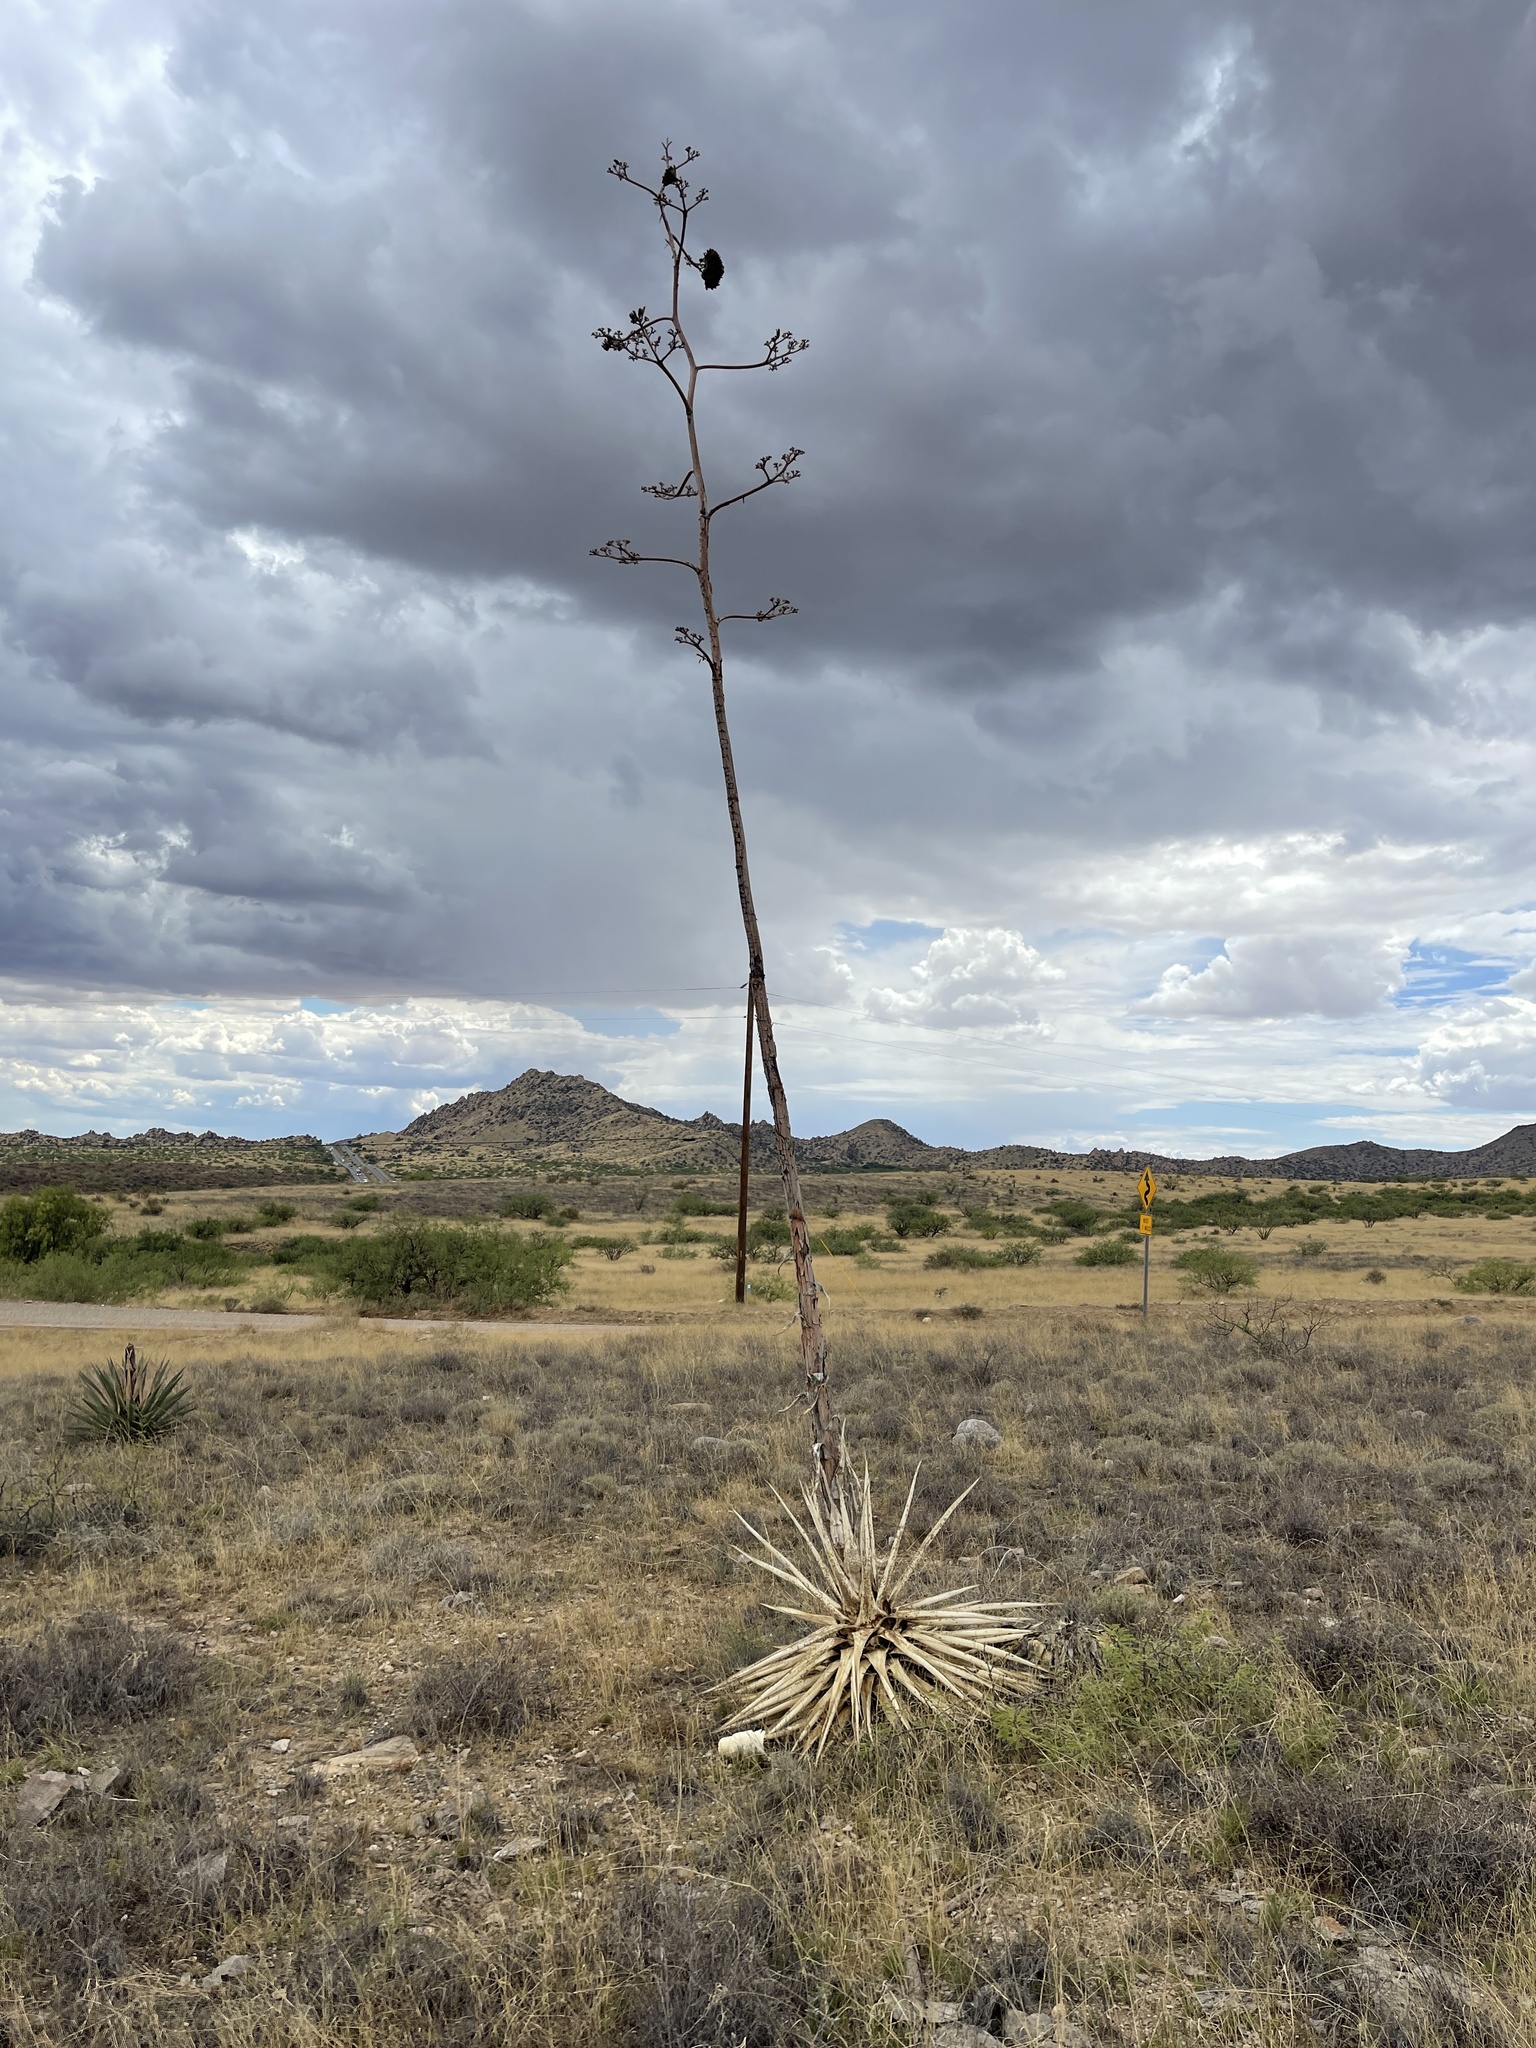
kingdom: Plantae
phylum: Tracheophyta
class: Liliopsida
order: Asparagales
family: Asparagaceae
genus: Agave
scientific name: Agave palmeri
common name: Palmer agave
